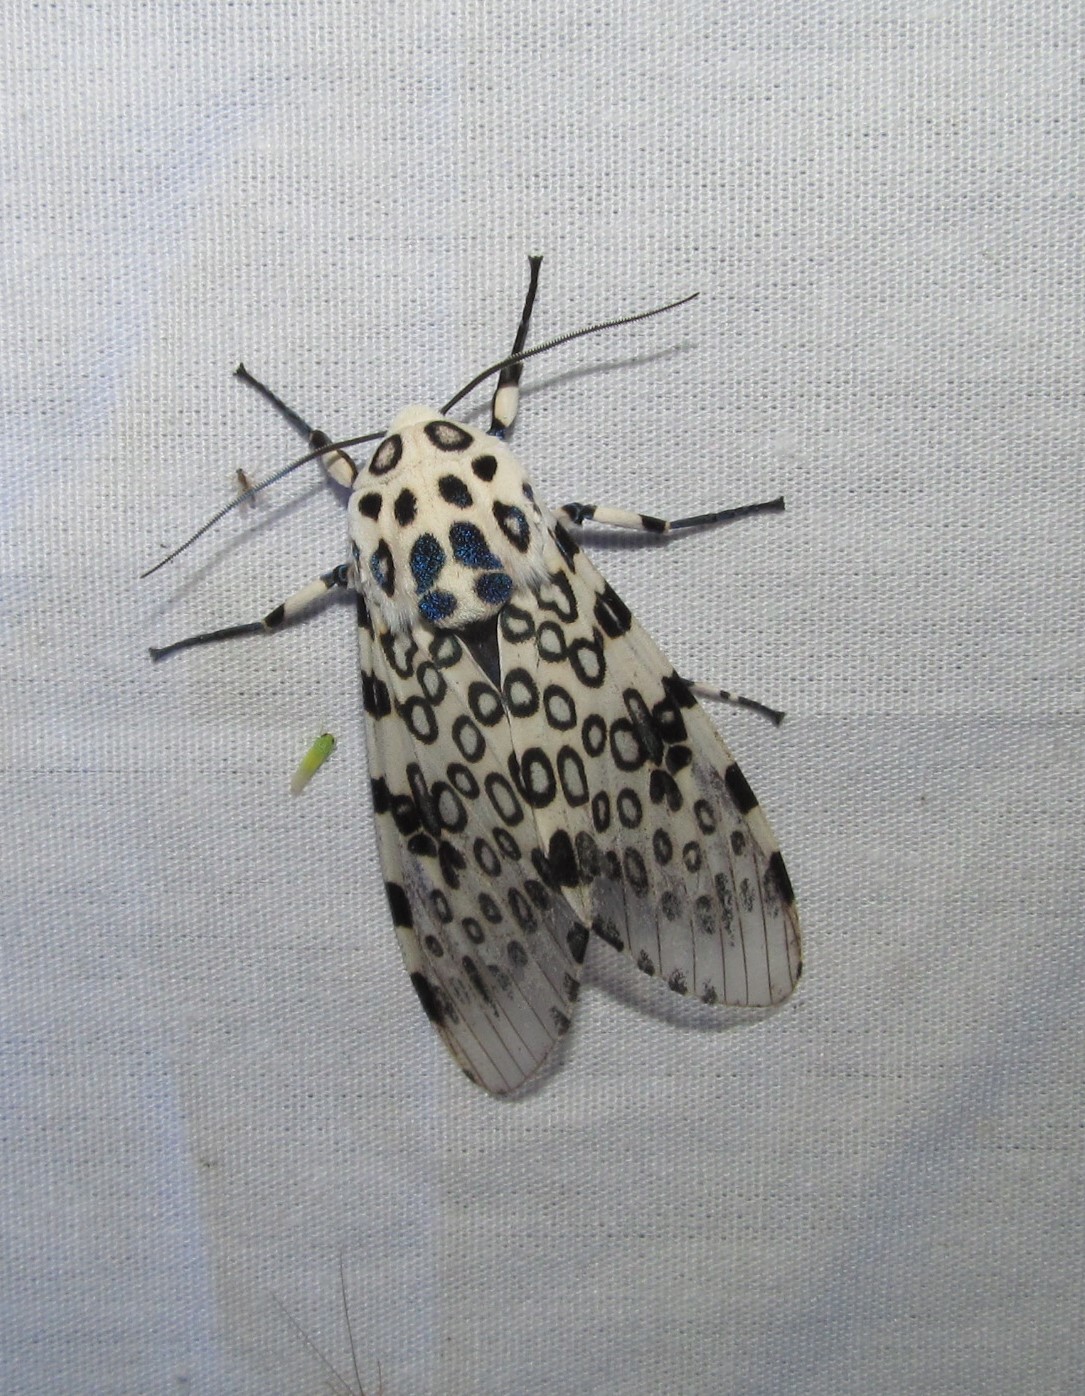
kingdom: Animalia
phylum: Arthropoda
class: Insecta
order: Lepidoptera
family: Erebidae
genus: Hypercompe
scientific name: Hypercompe scribonia
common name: Giant leopard moth
